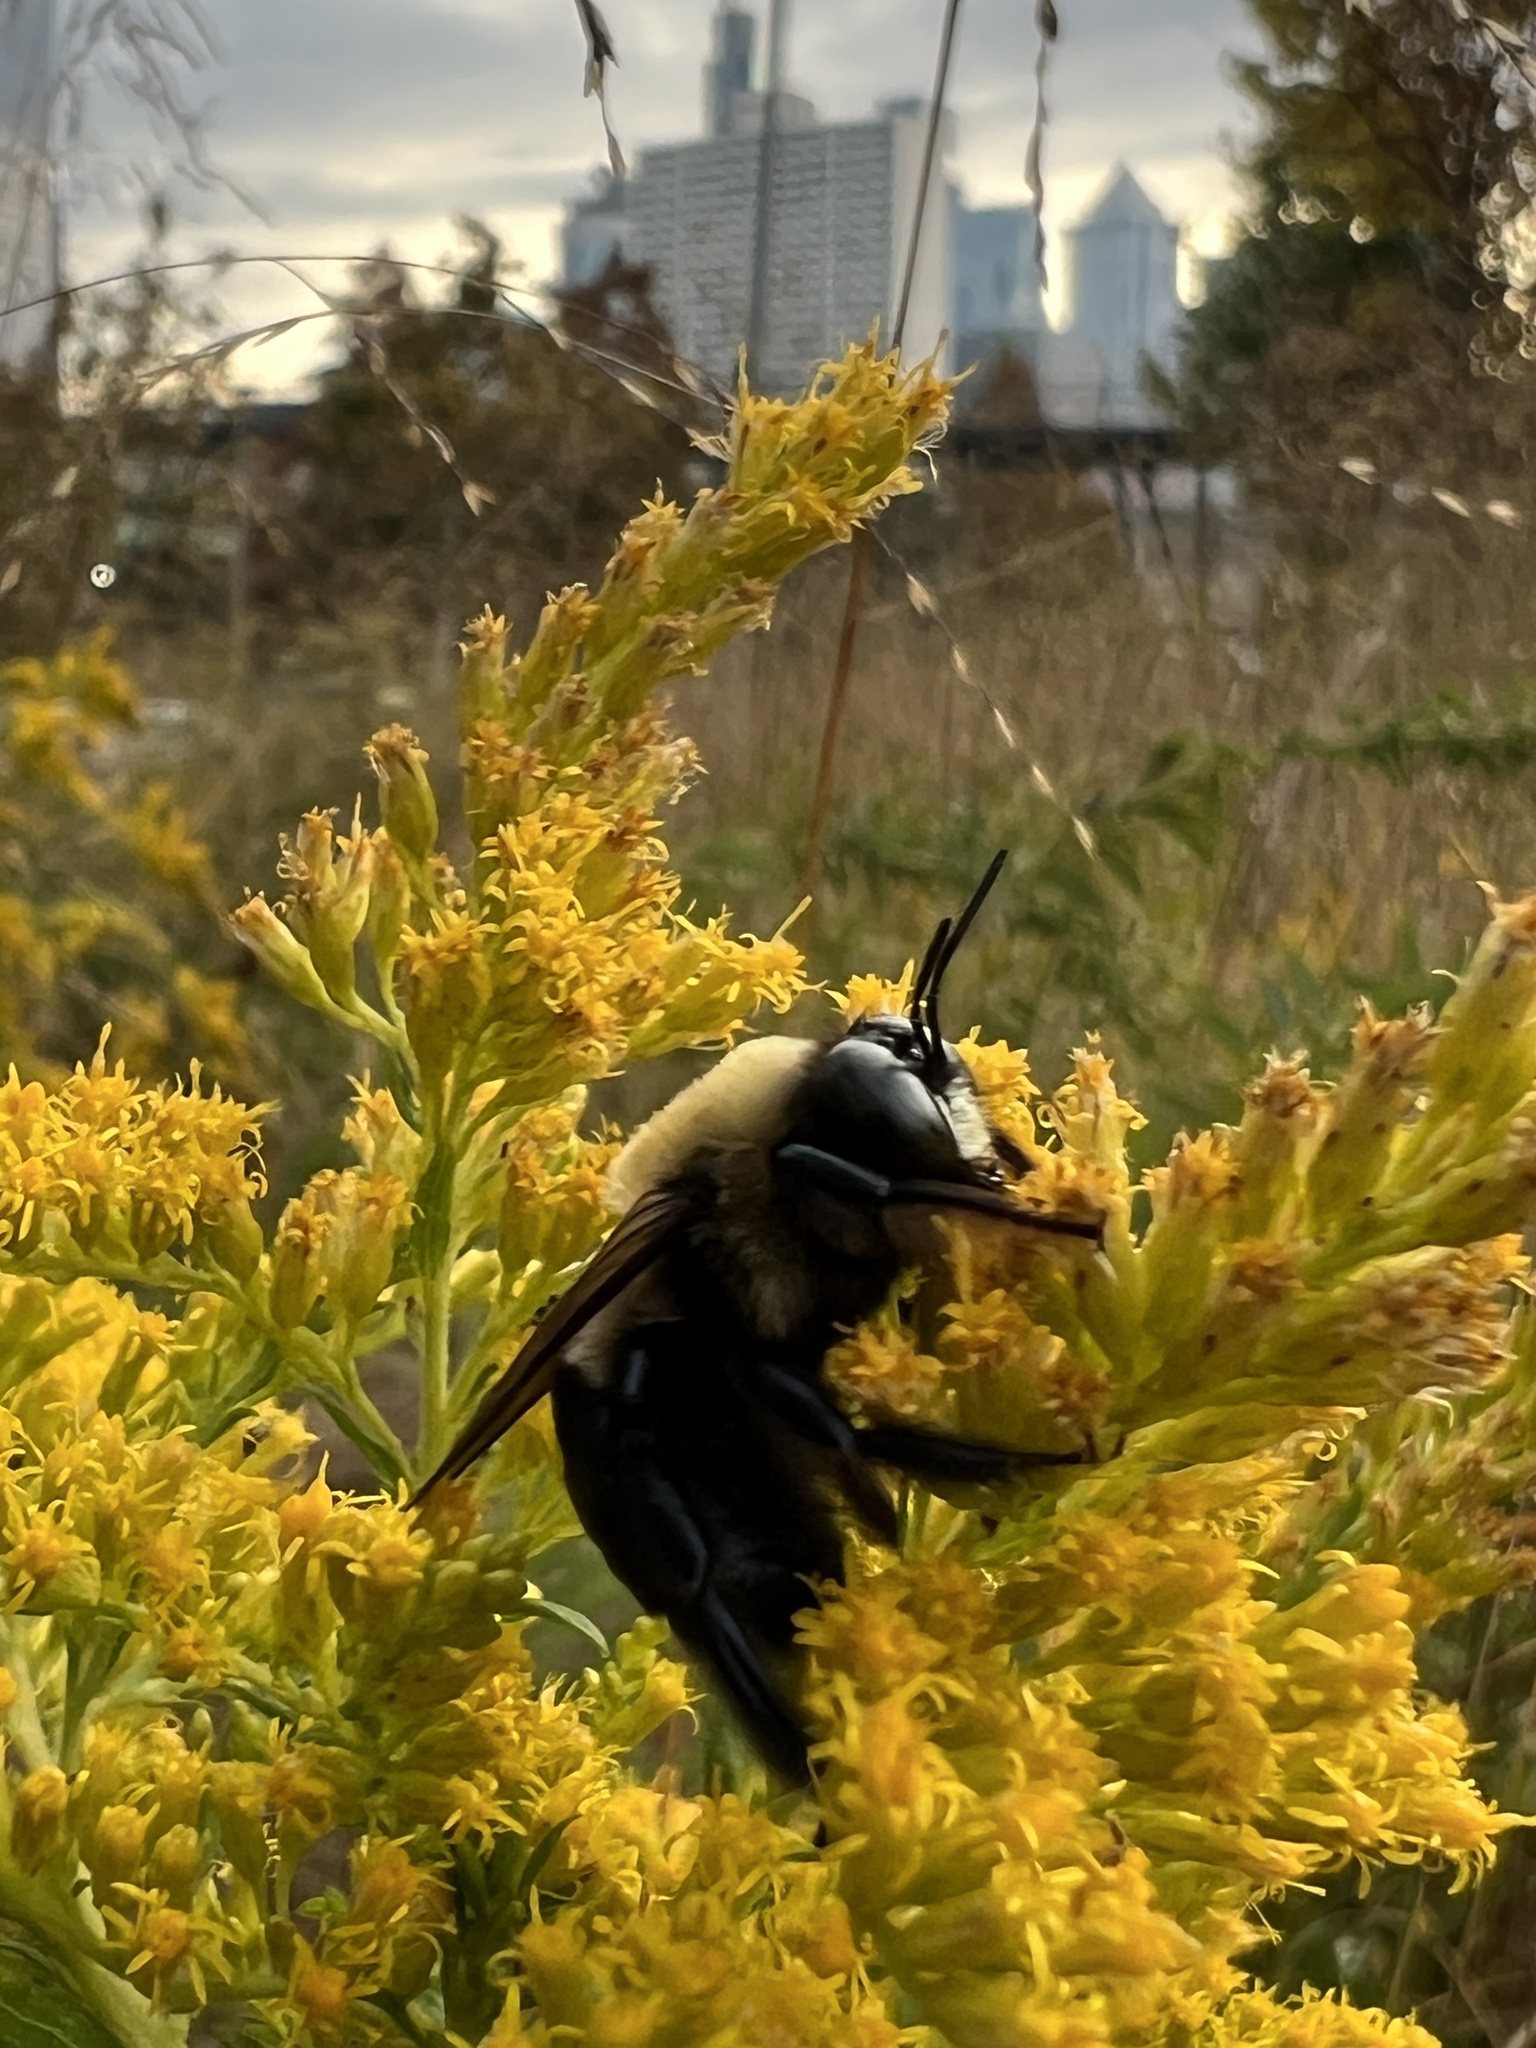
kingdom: Animalia
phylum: Arthropoda
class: Insecta
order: Hymenoptera
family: Apidae
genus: Xylocopa
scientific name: Xylocopa virginica
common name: Carpenter bee
